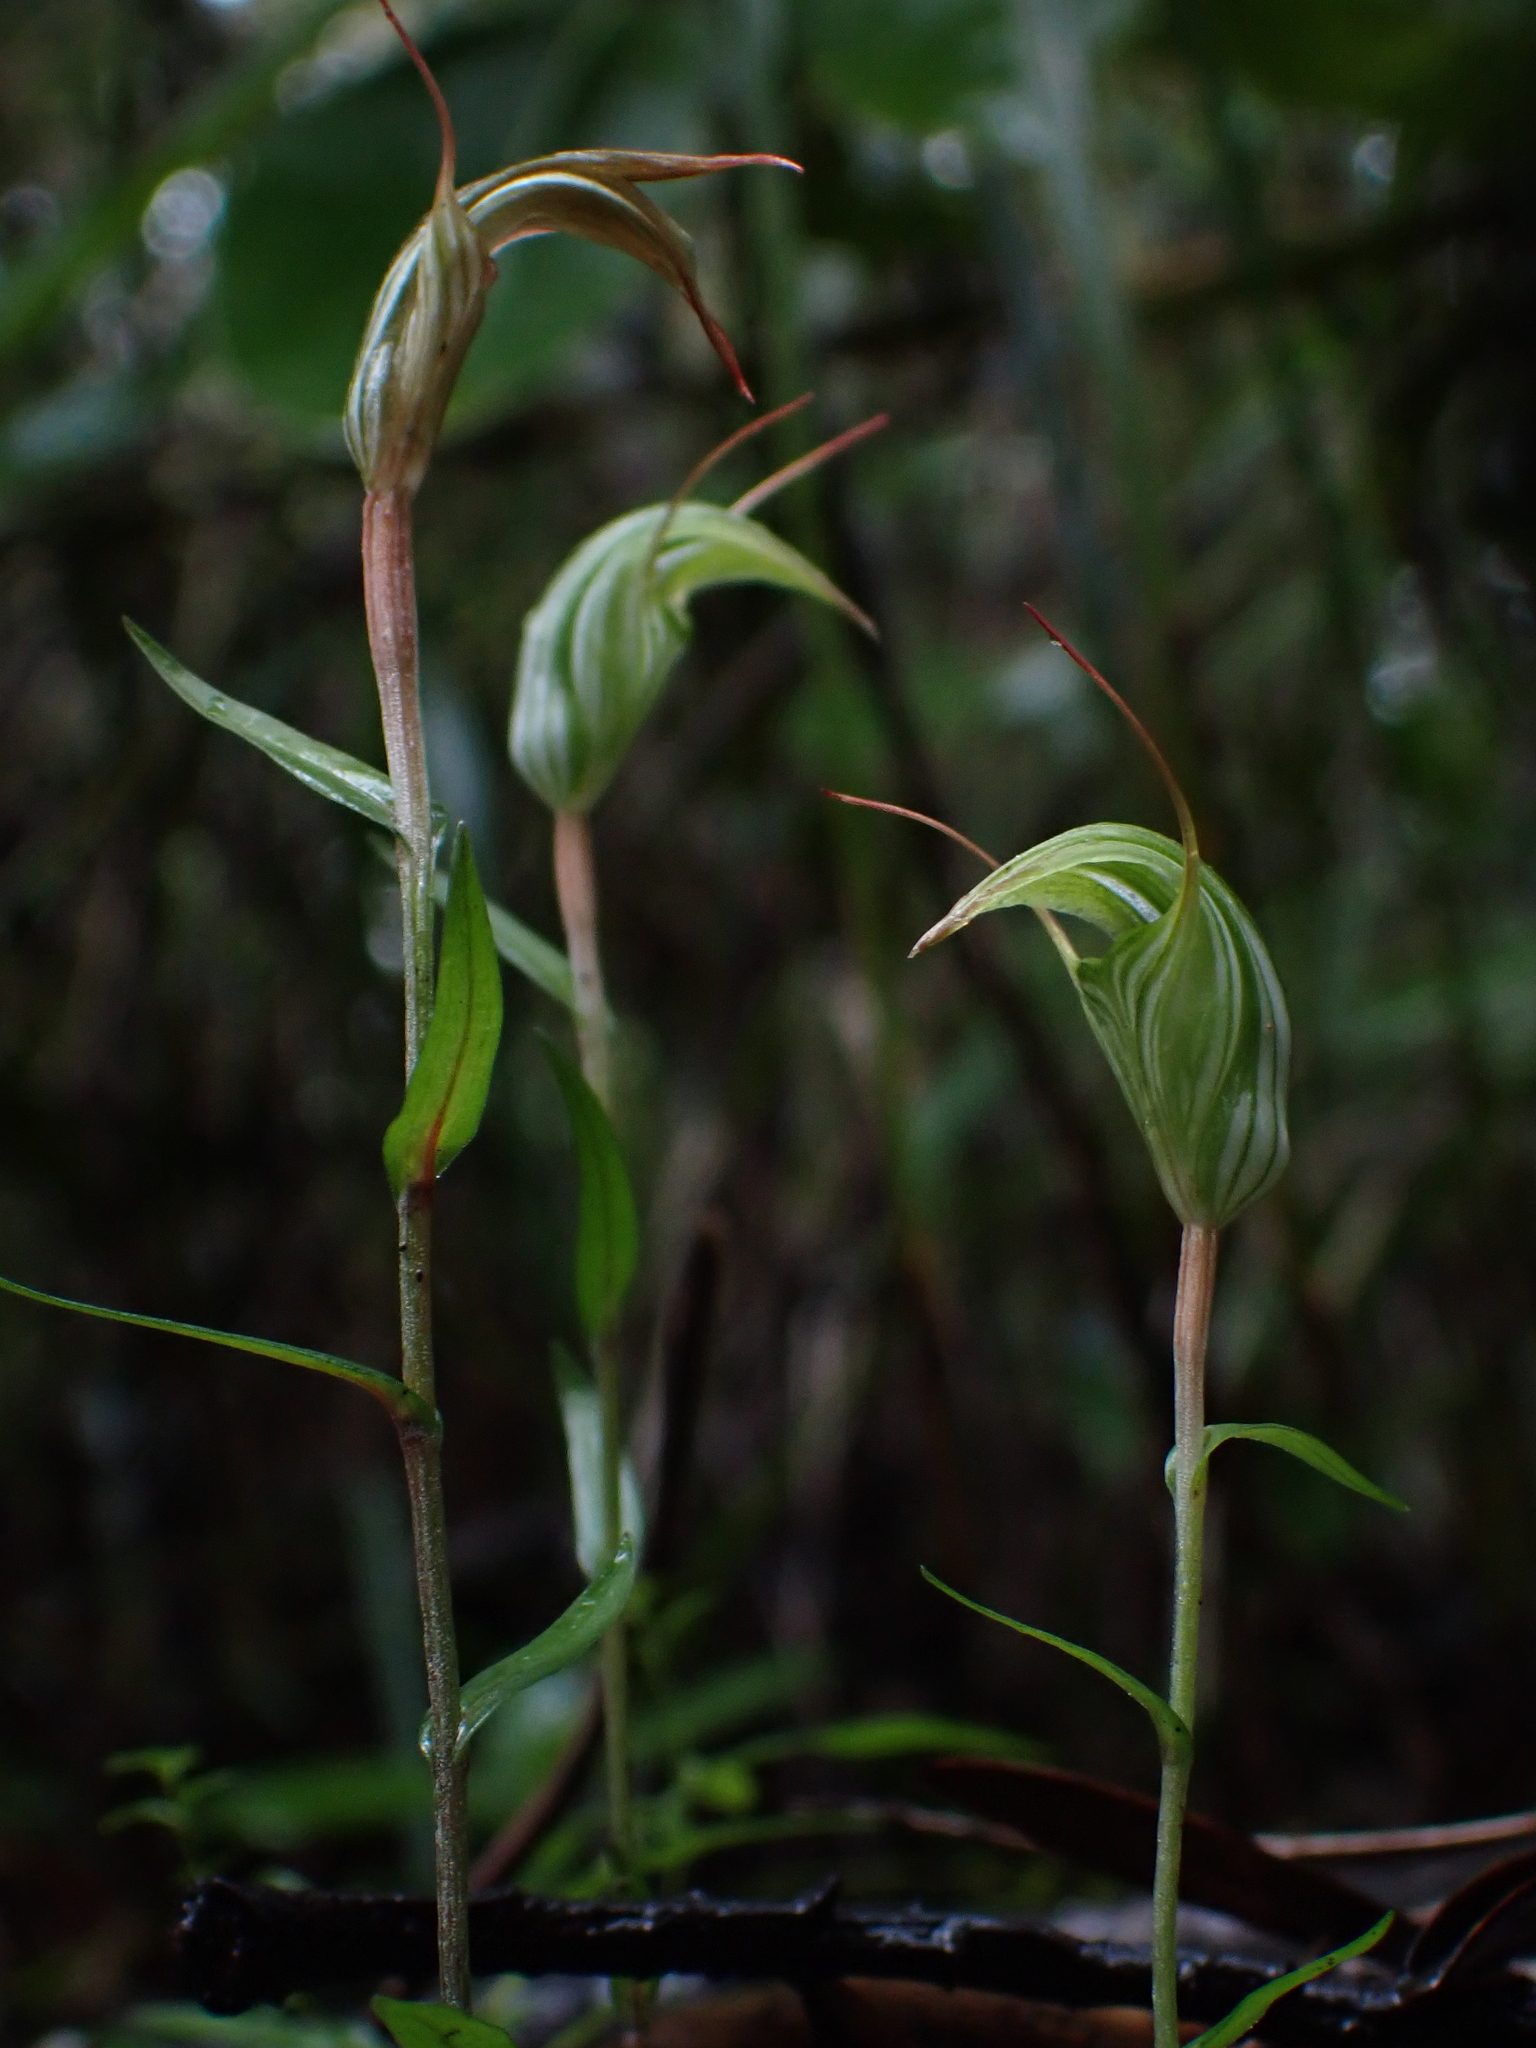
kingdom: Plantae
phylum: Tracheophyta
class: Liliopsida
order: Asparagales
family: Orchidaceae
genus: Pterostylis
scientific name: Pterostylis alobula
